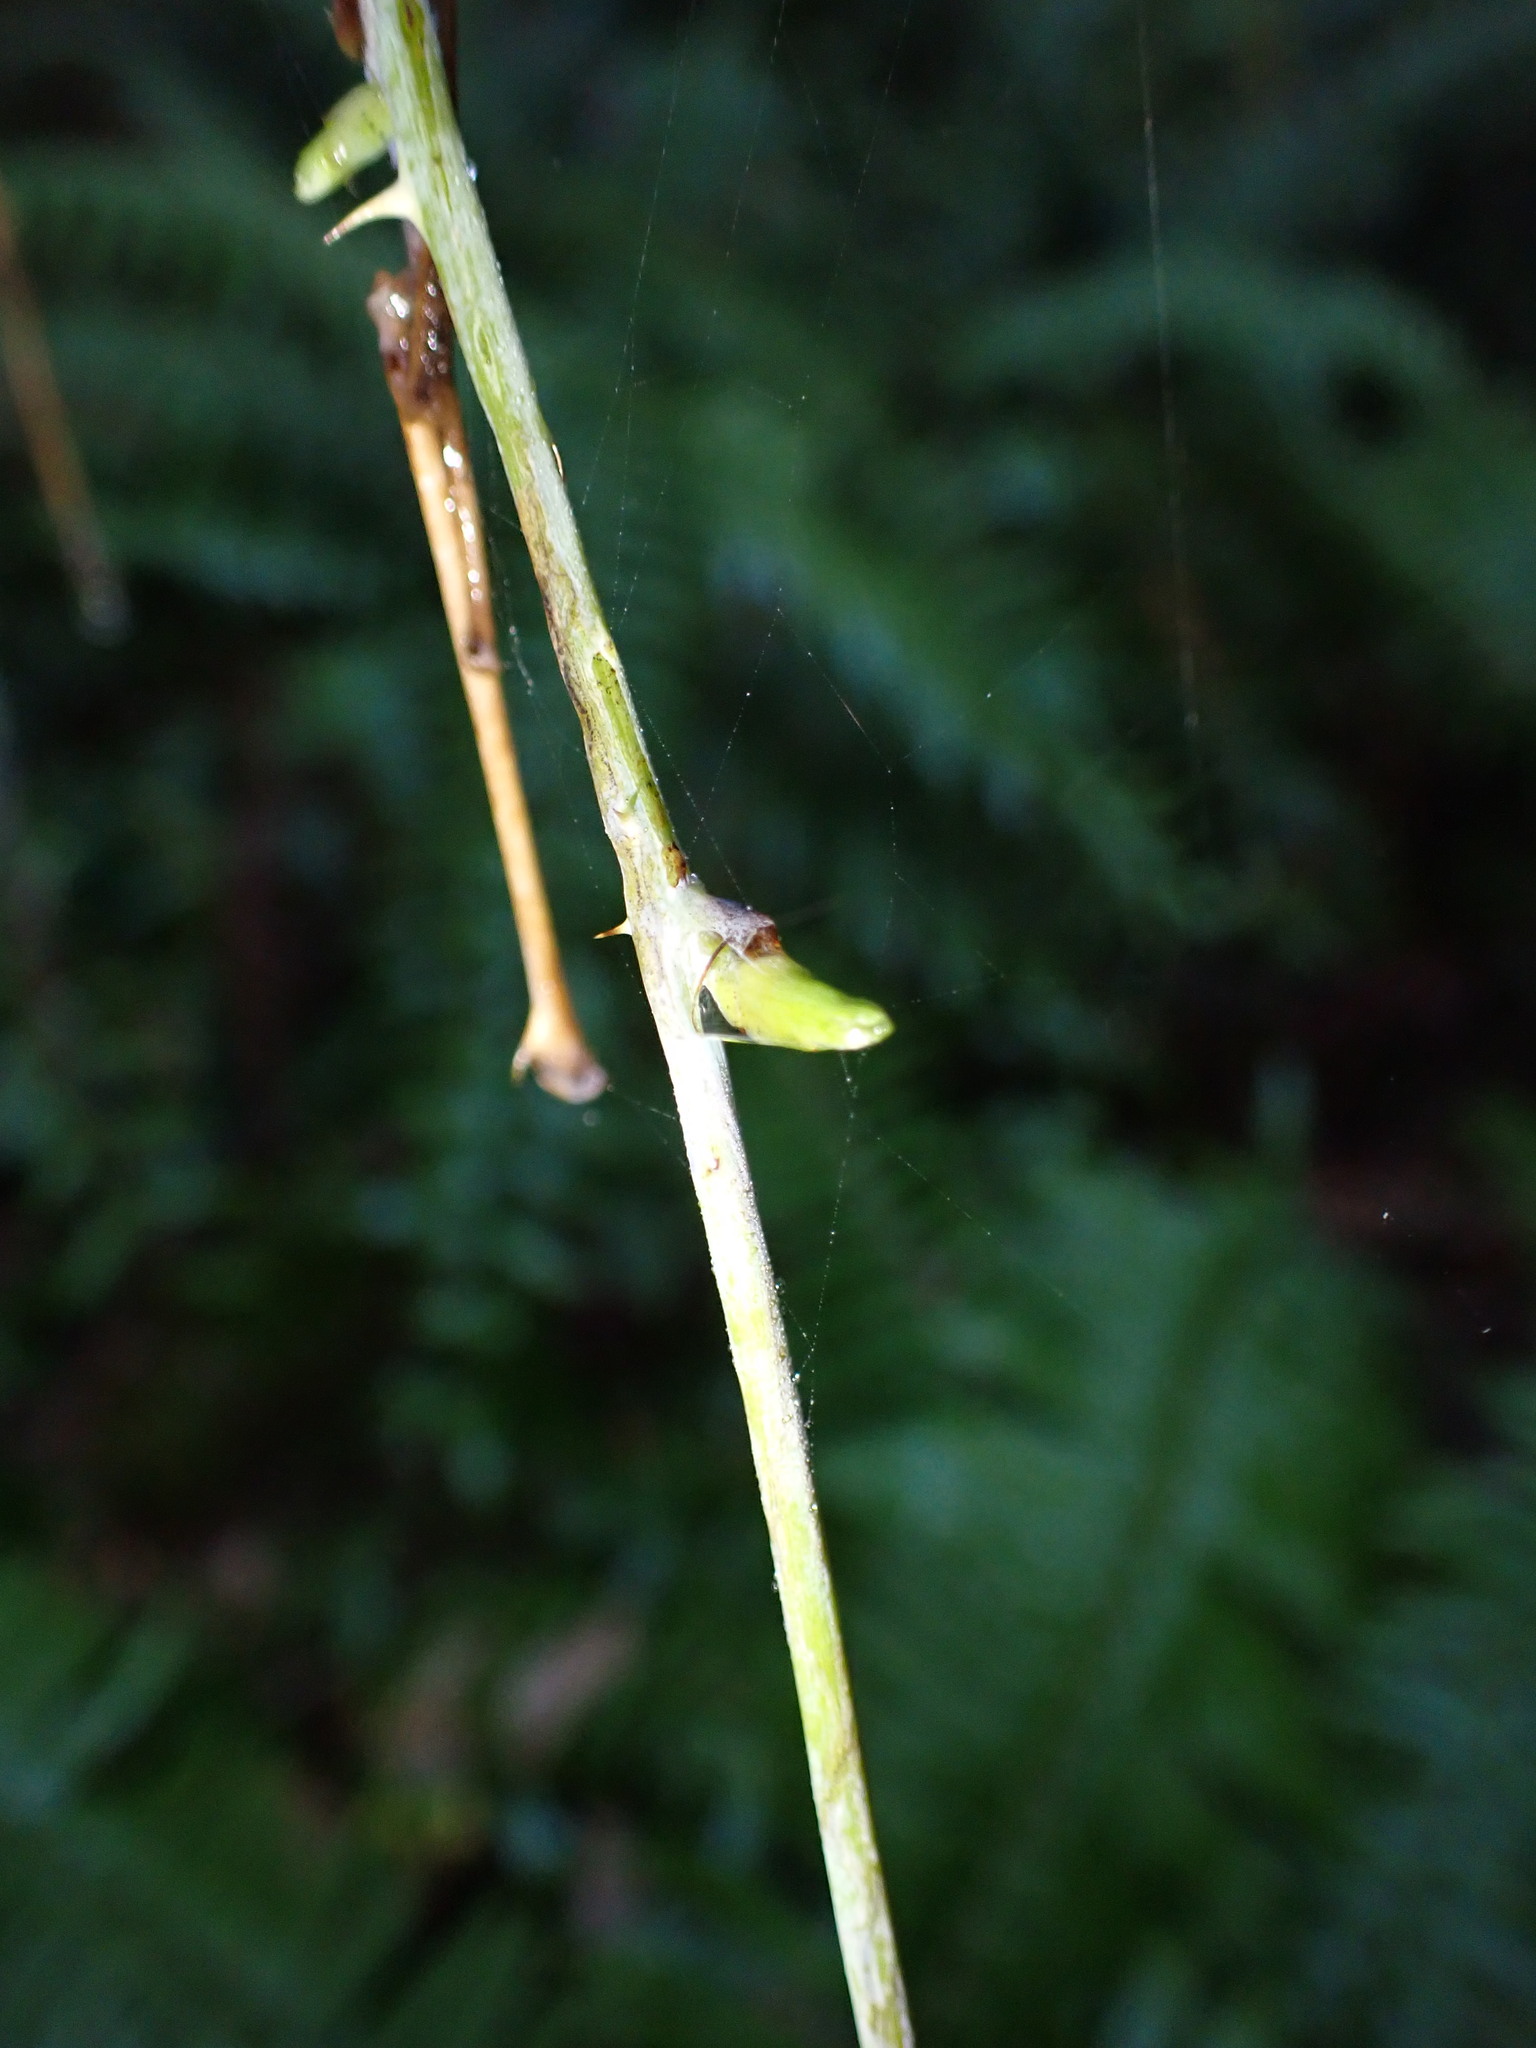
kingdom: Plantae
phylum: Tracheophyta
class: Magnoliopsida
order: Rosales
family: Rosaceae
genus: Rubus
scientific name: Rubus leucodermis
